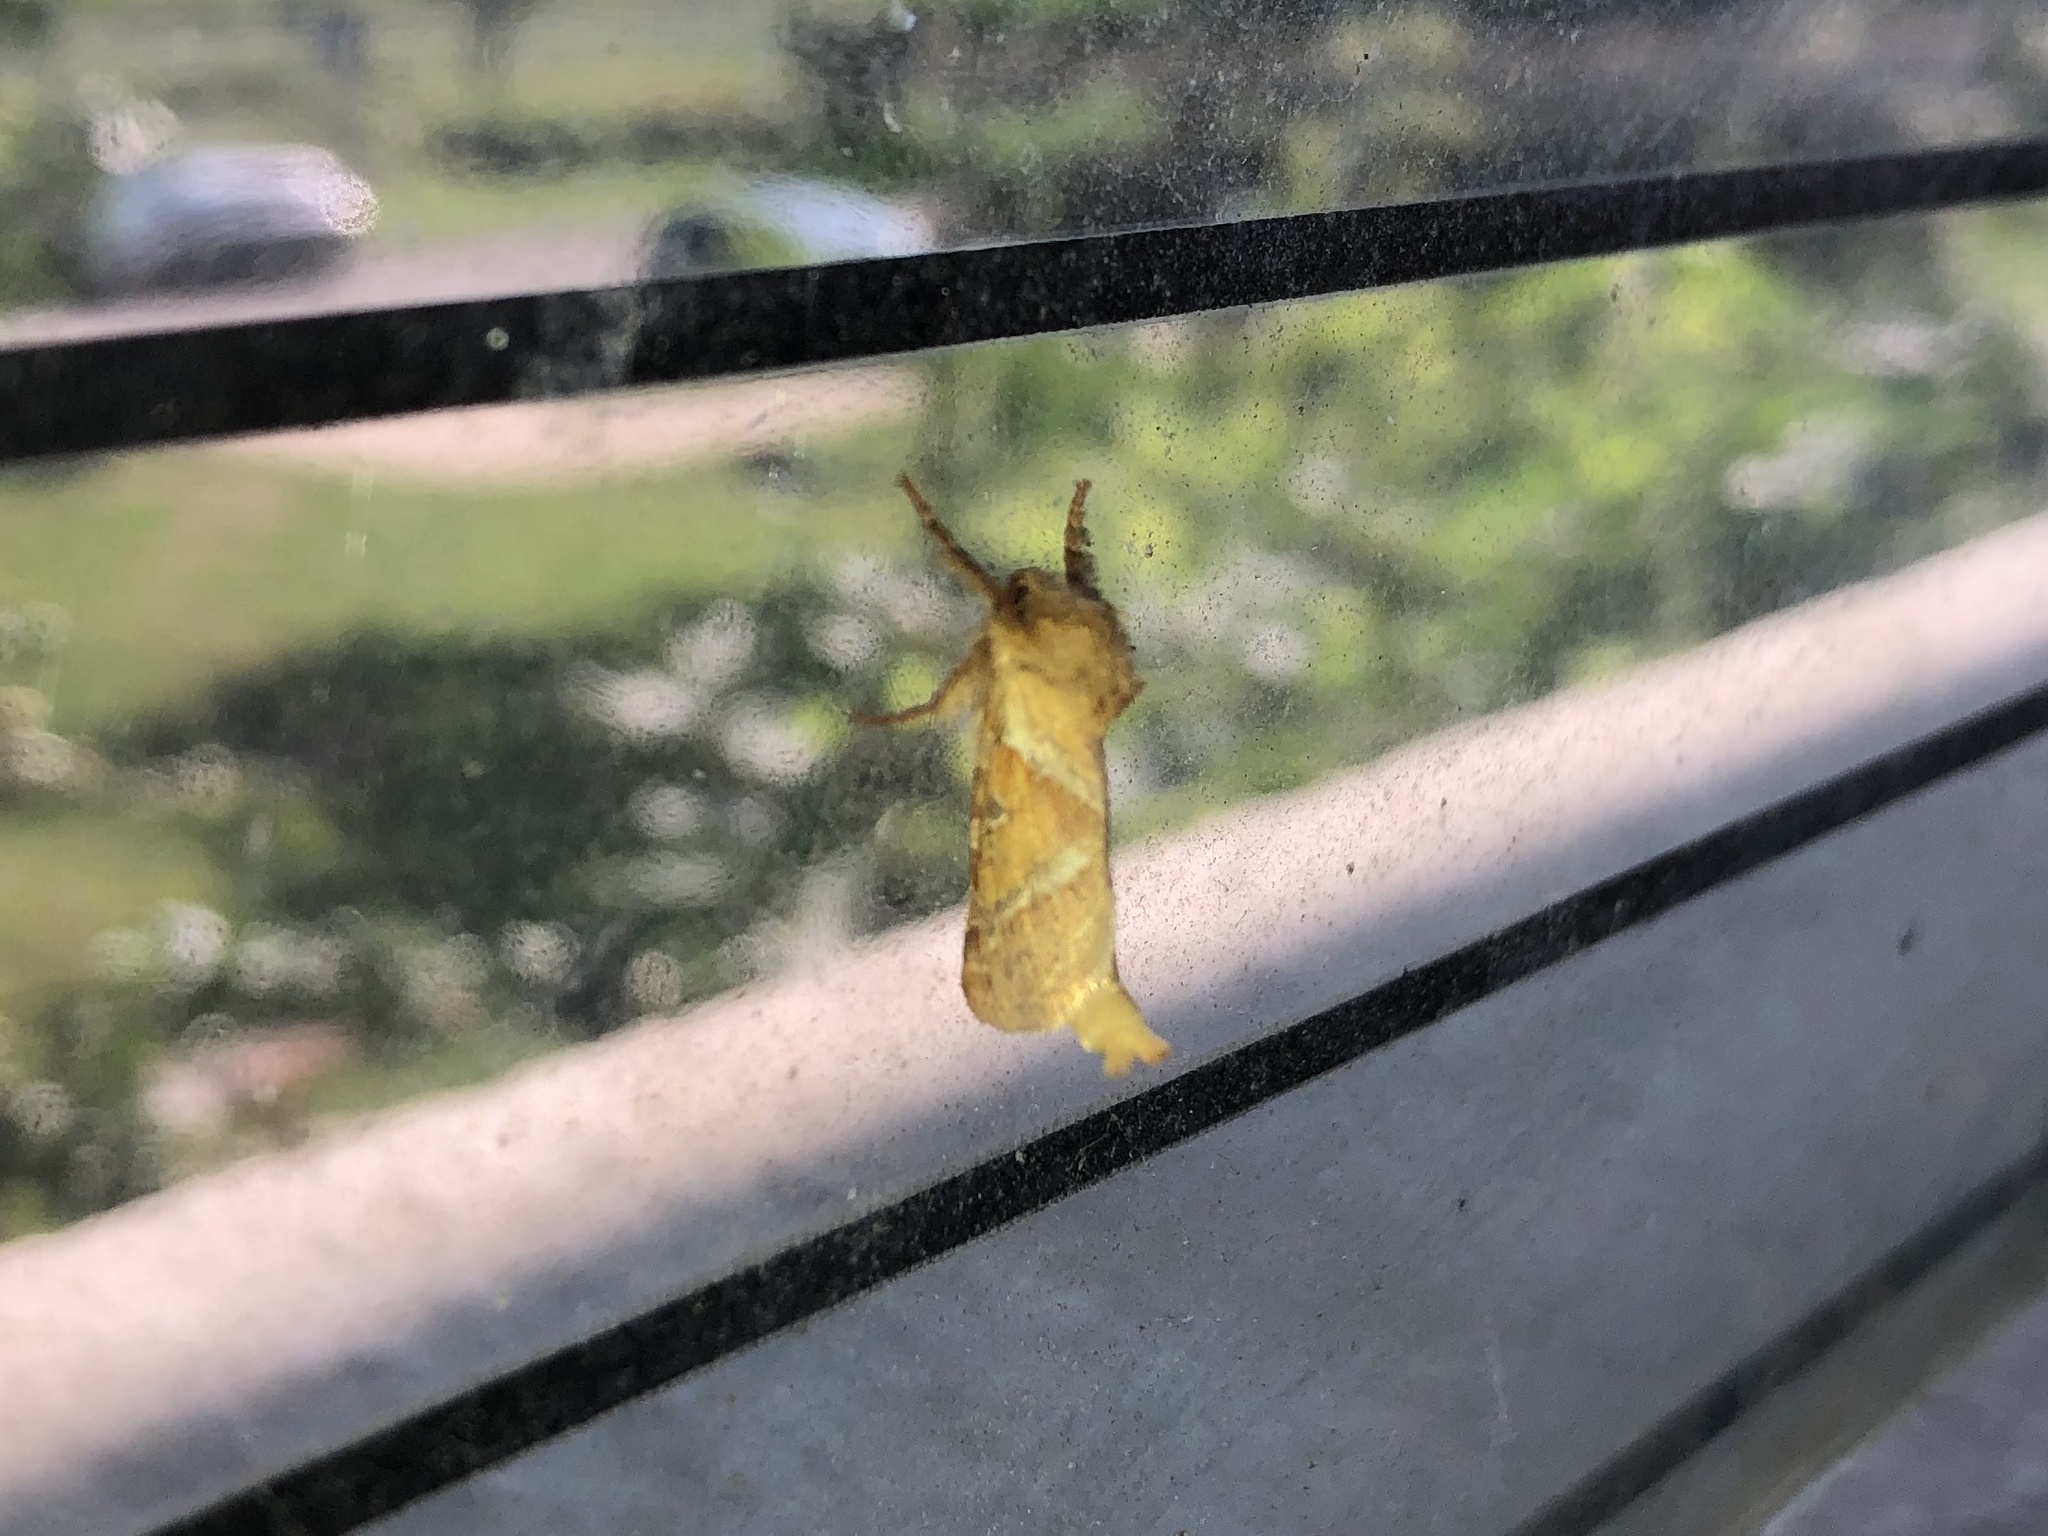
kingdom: Animalia
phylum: Arthropoda
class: Insecta
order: Lepidoptera
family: Hepialidae
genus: Triodia
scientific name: Triodia sylvina
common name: Orange swift
